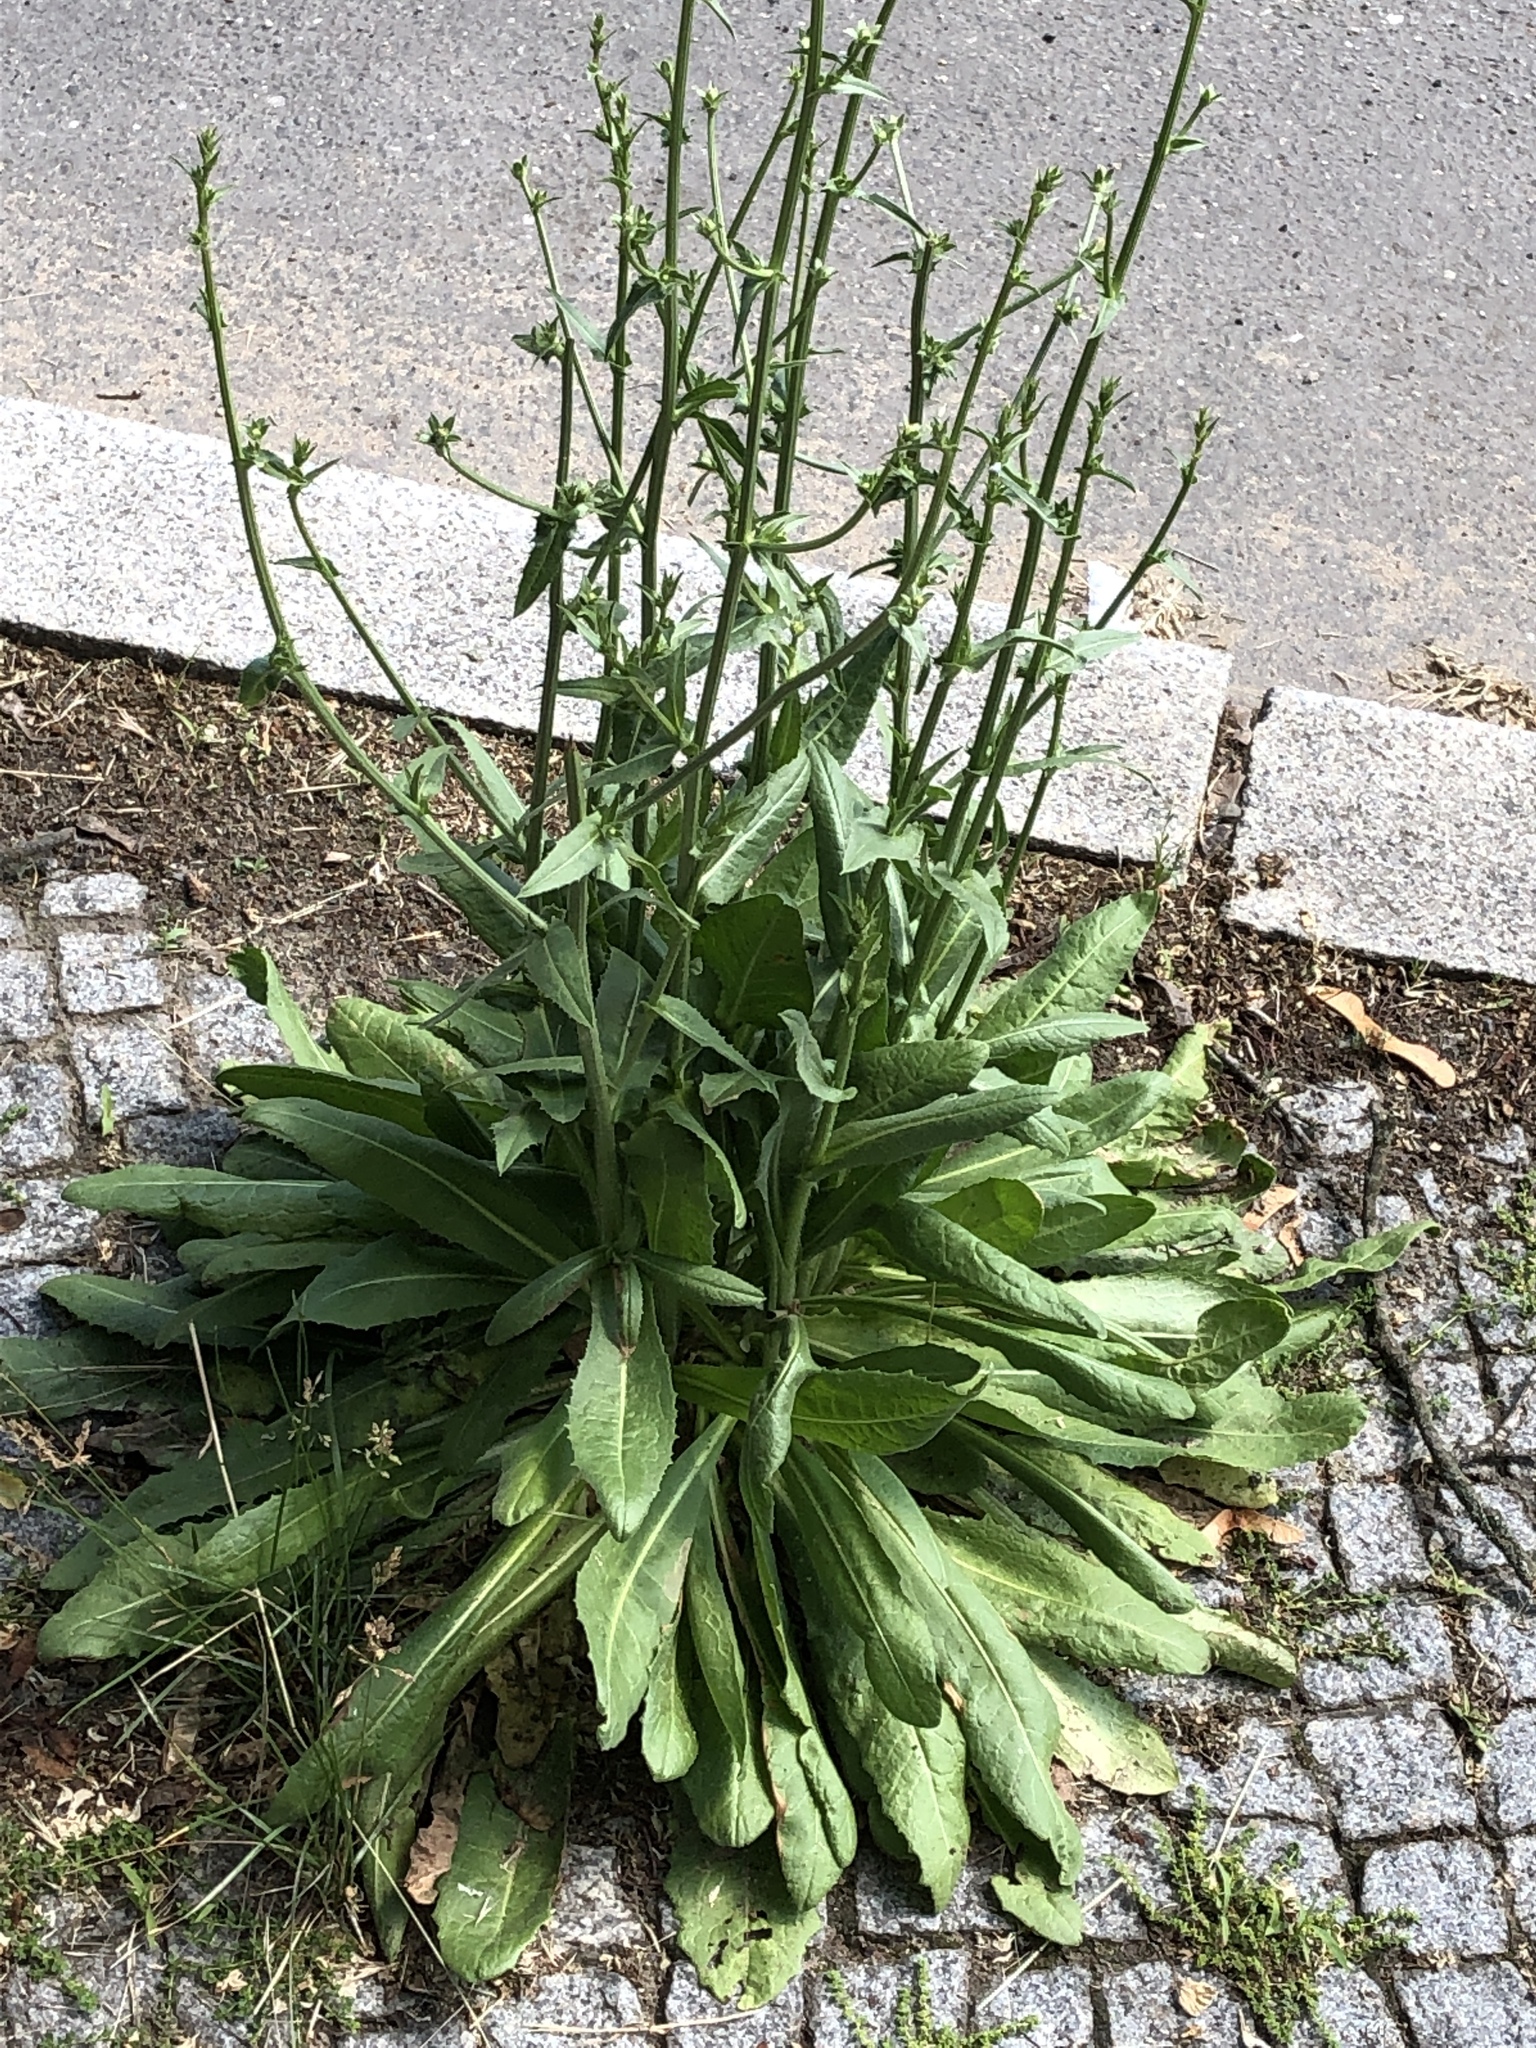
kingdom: Plantae
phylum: Tracheophyta
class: Magnoliopsida
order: Asterales
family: Asteraceae
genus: Cichorium
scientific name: Cichorium intybus
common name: Chicory
